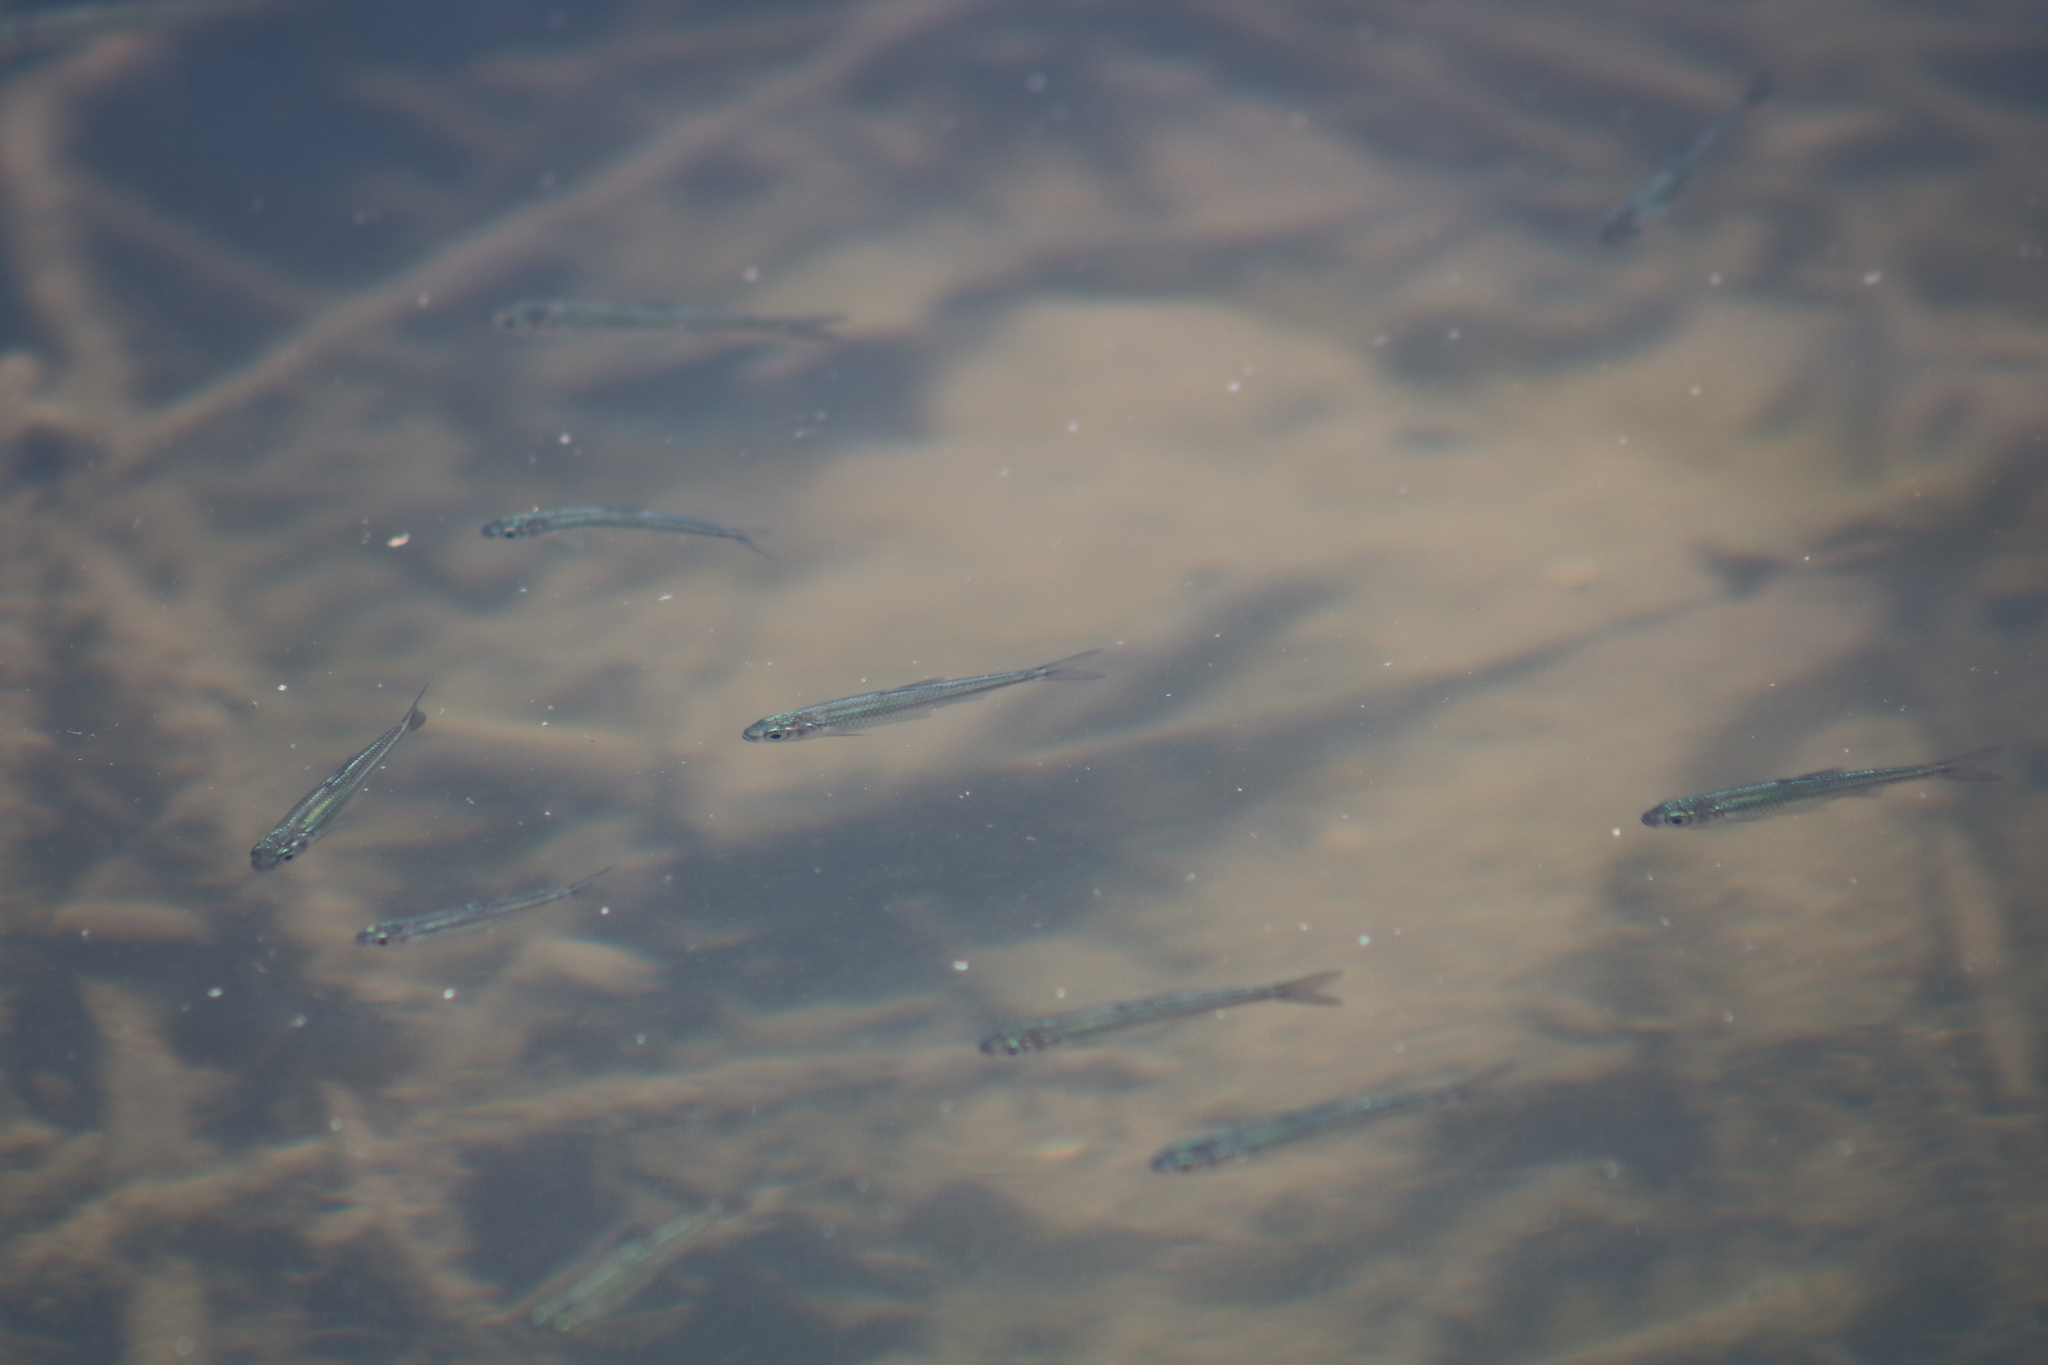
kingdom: Animalia
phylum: Chordata
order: Cypriniformes
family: Cyprinidae
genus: Notropis
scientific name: Notropis photogenis
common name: Silver shiner
